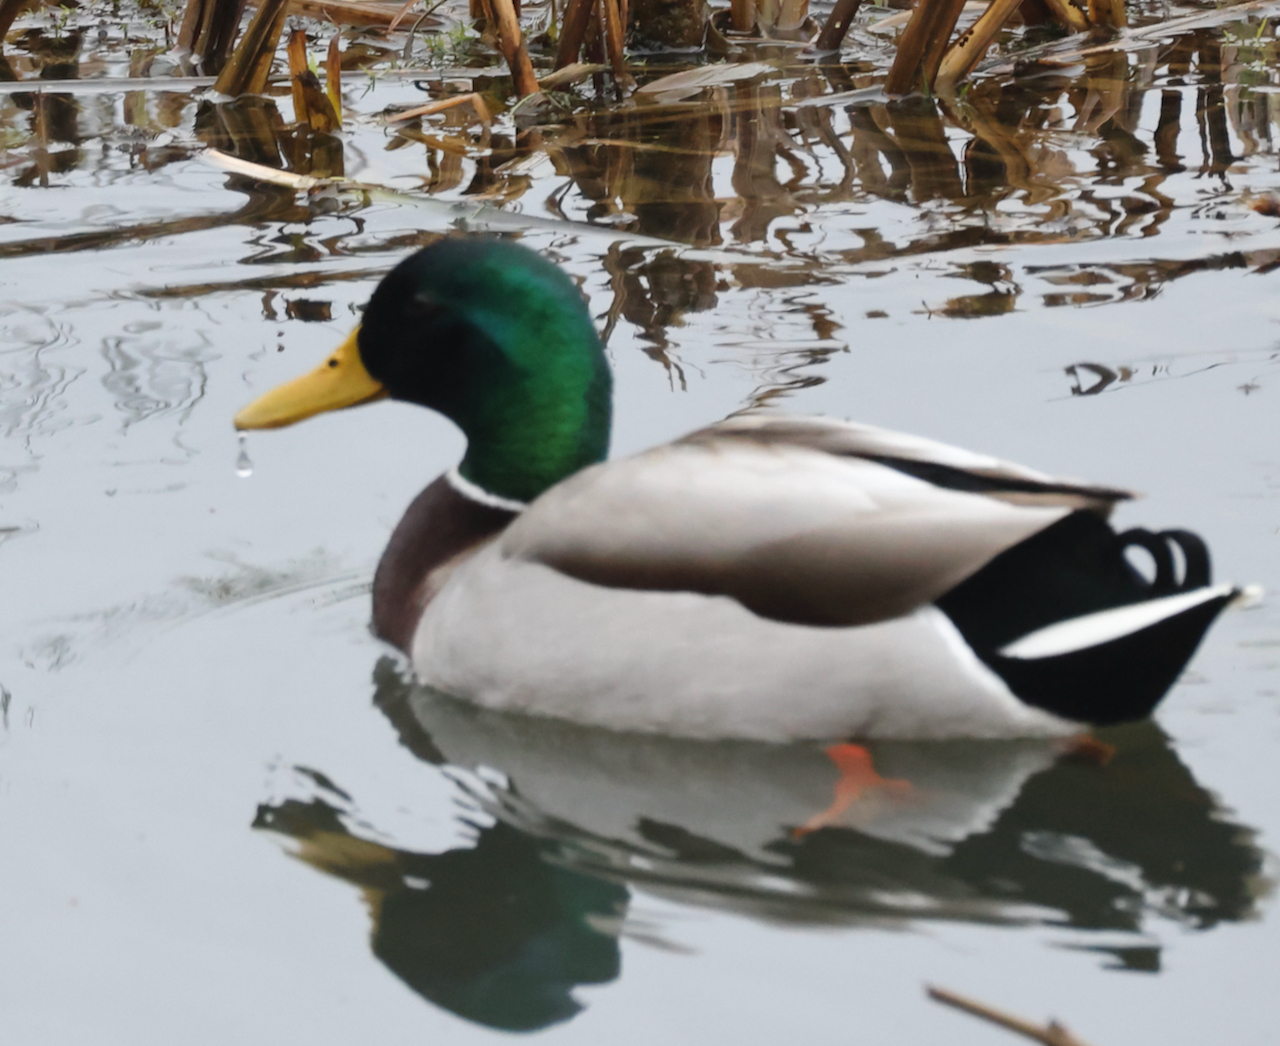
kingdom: Animalia
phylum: Chordata
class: Aves
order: Anseriformes
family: Anatidae
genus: Anas
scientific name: Anas platyrhynchos
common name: Mallard
